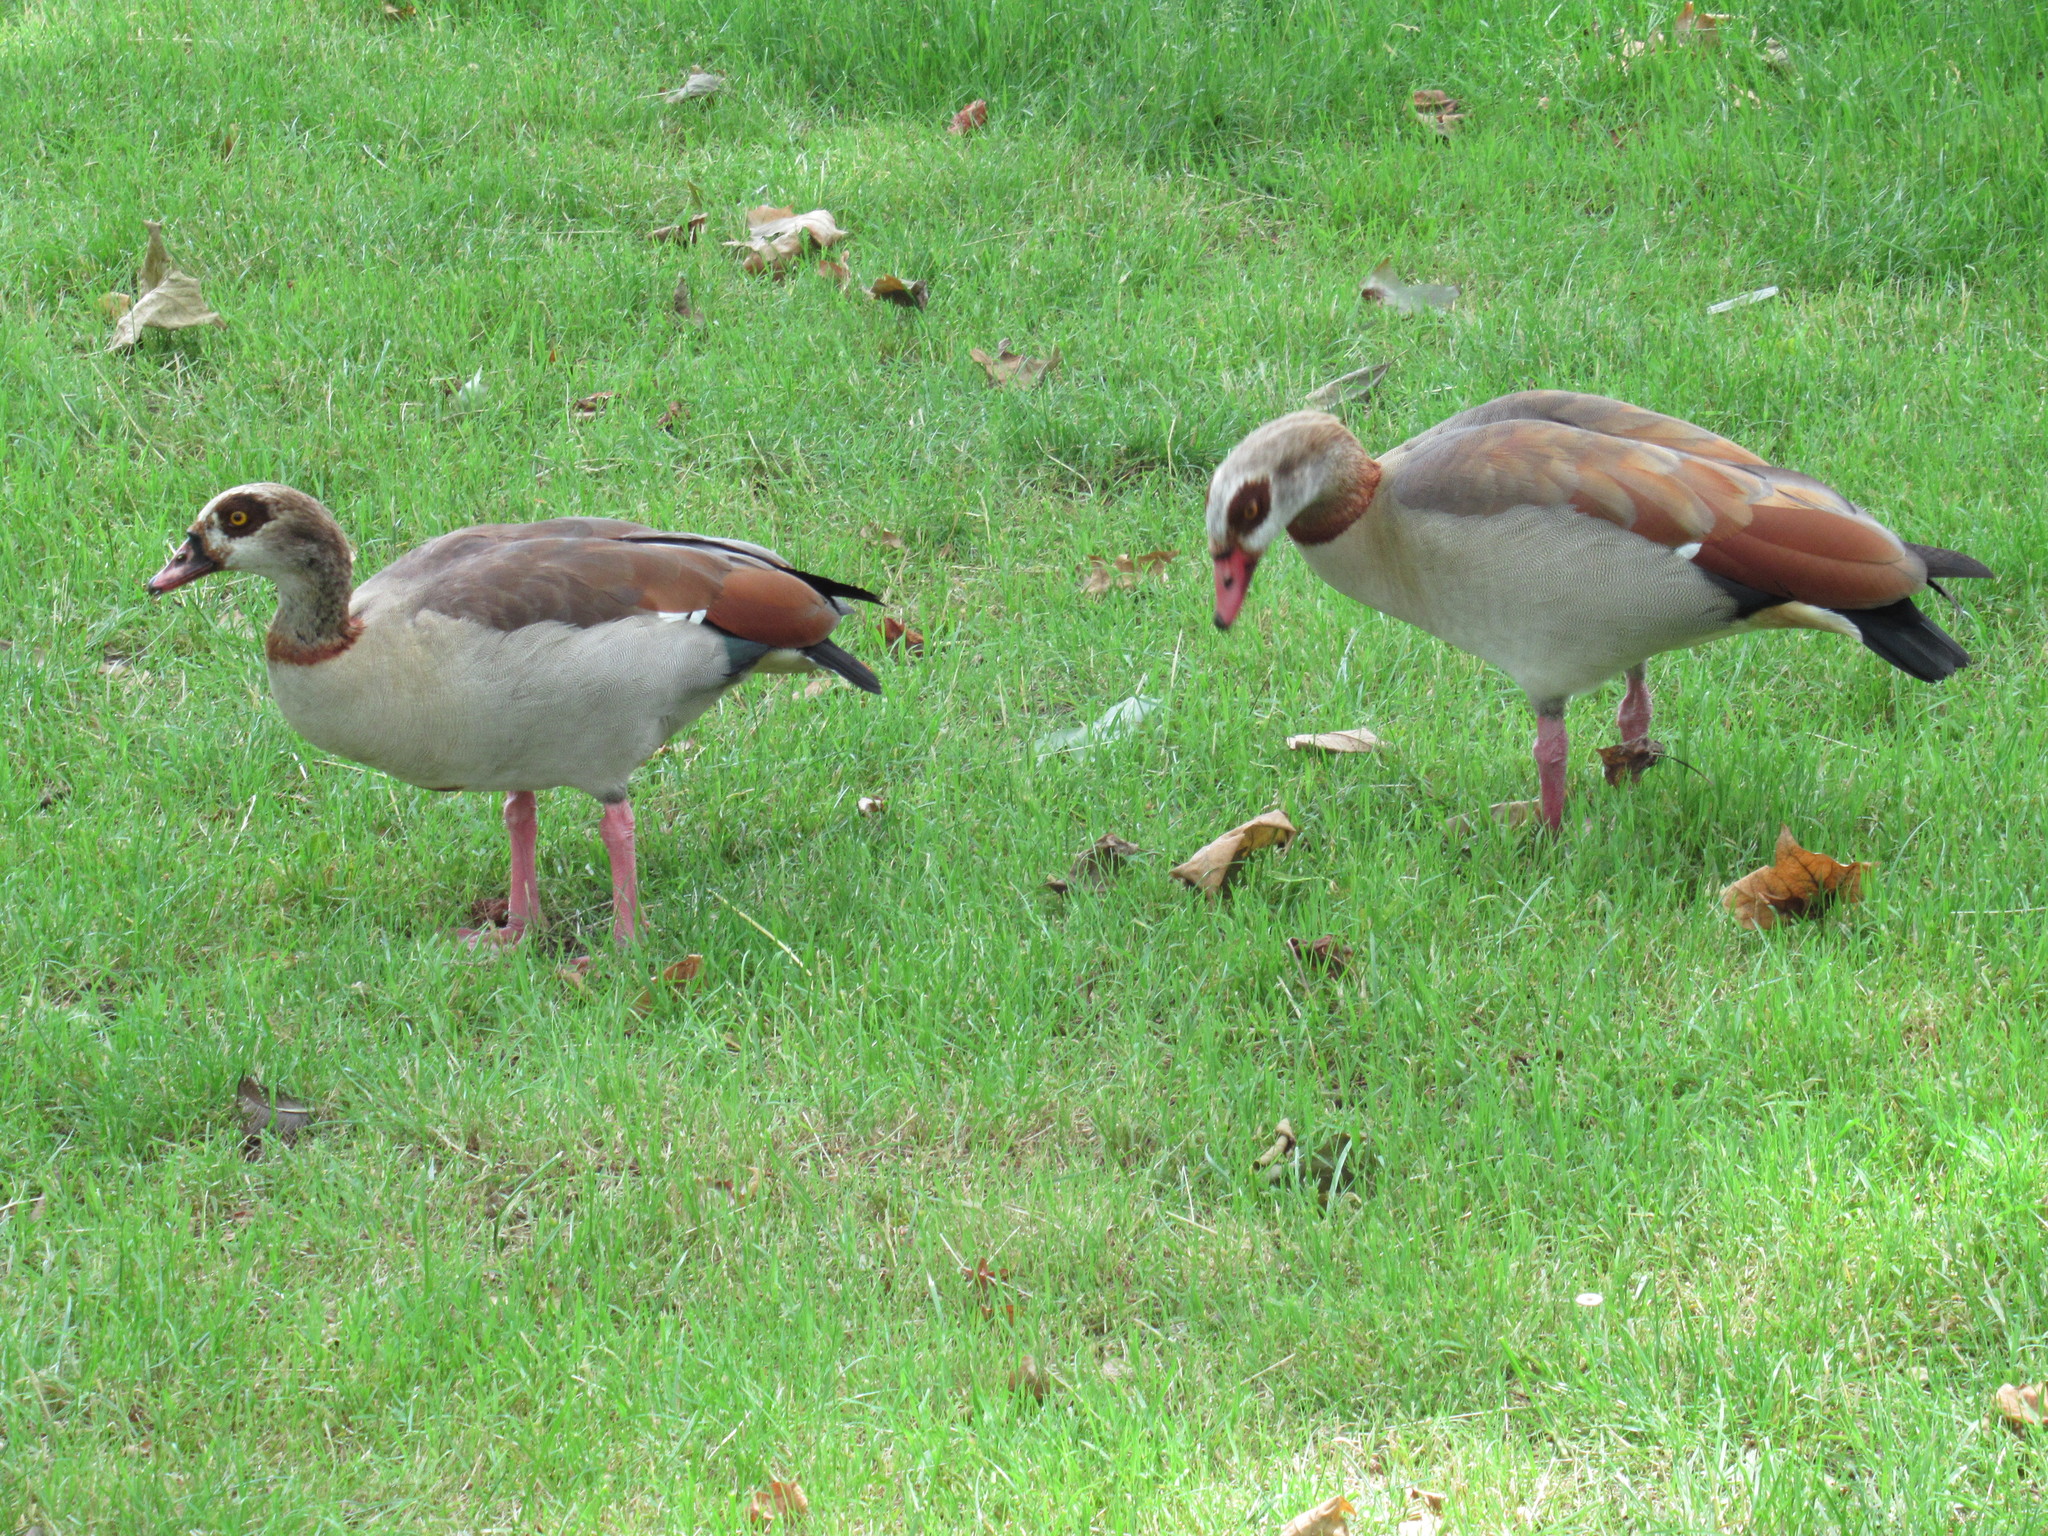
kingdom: Animalia
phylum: Chordata
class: Aves
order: Anseriformes
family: Anatidae
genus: Alopochen
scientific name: Alopochen aegyptiaca
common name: Egyptian goose
